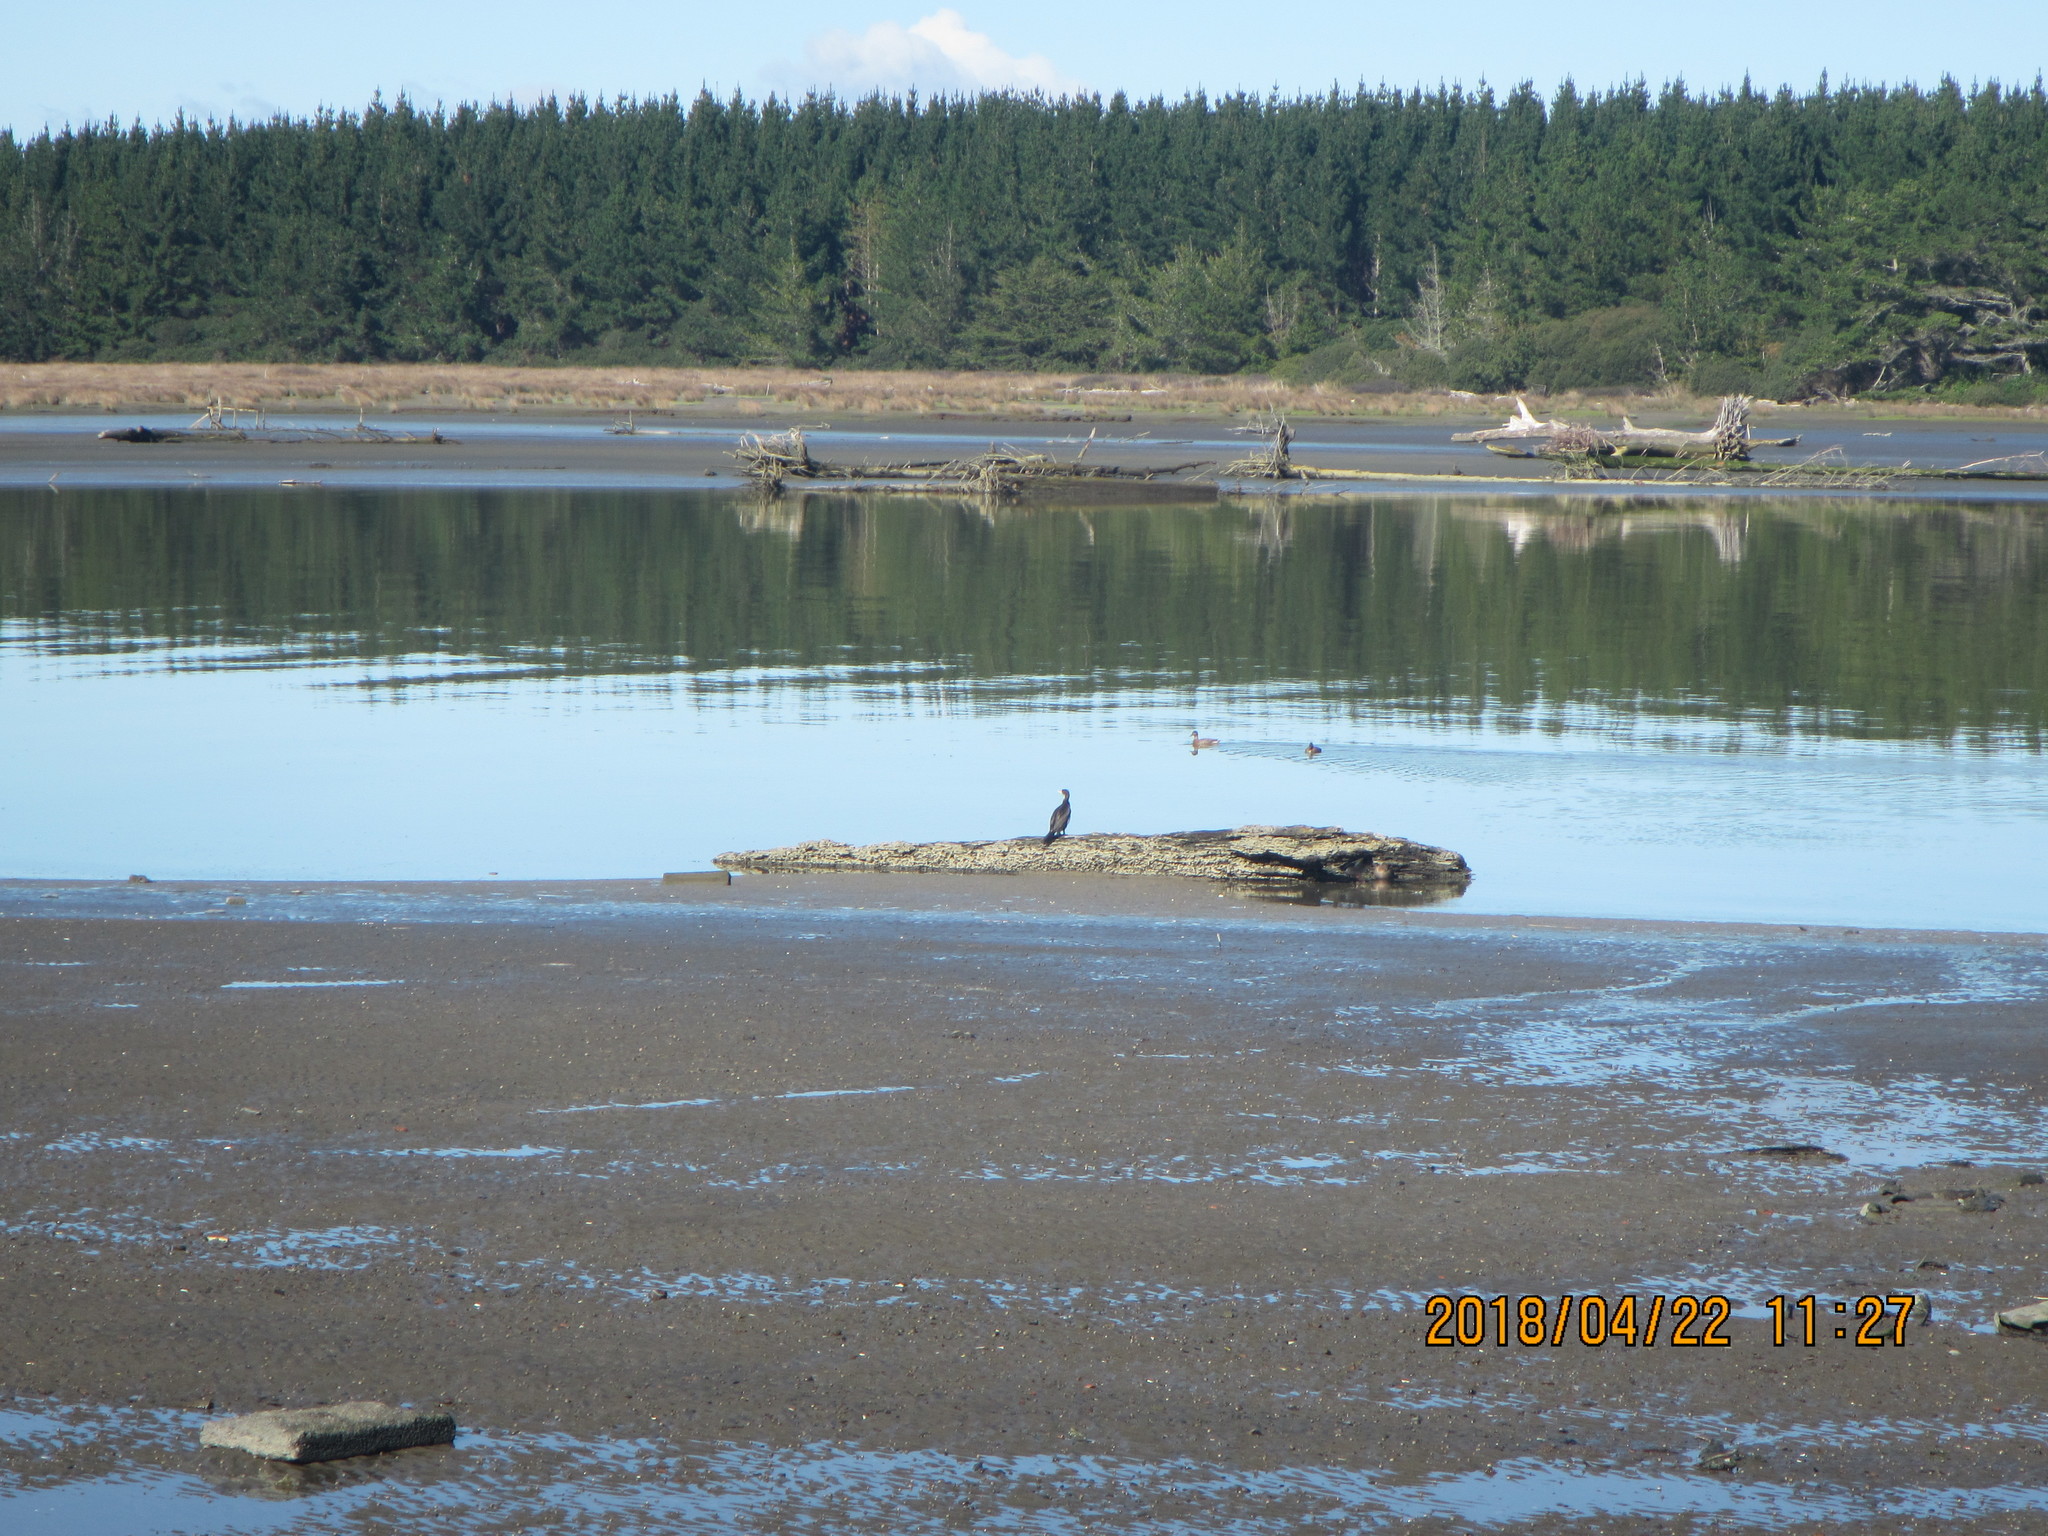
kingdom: Animalia
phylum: Chordata
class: Aves
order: Suliformes
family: Phalacrocoracidae
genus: Phalacrocorax
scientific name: Phalacrocorax varius
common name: Pied cormorant
